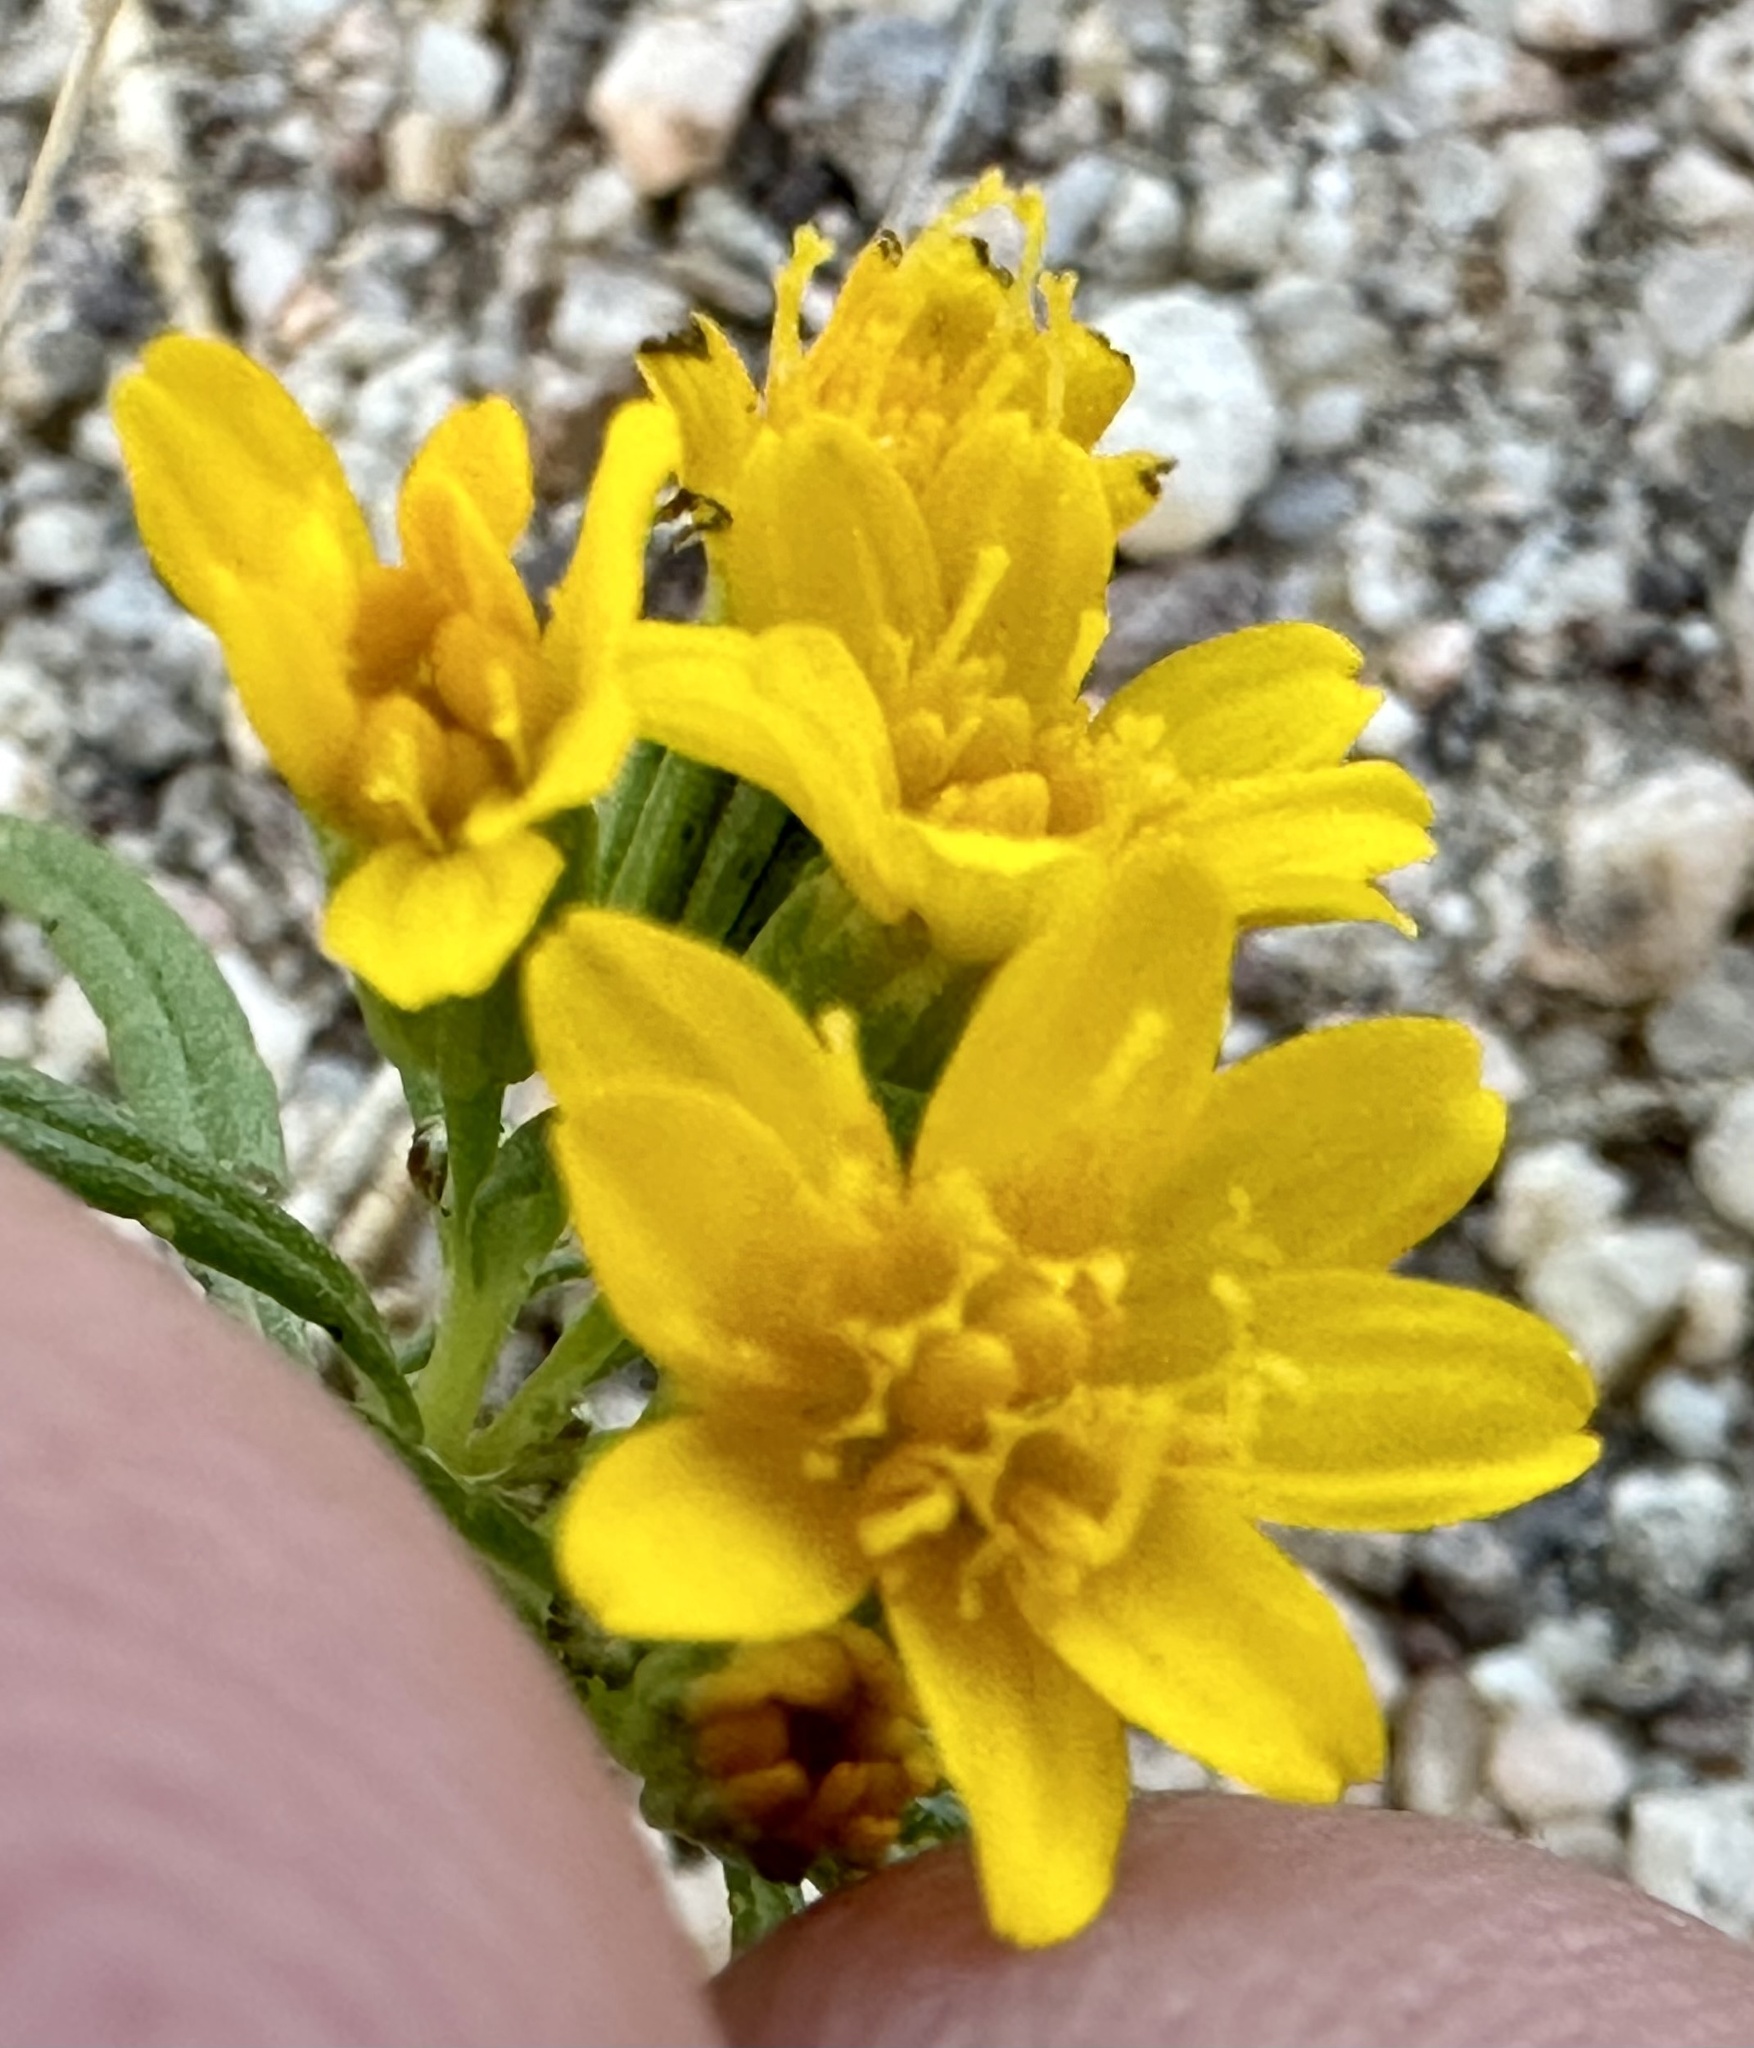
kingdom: Plantae
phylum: Tracheophyta
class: Magnoliopsida
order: Asterales
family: Asteraceae
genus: Pectis
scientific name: Pectis papposa
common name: Many-bristle chinchweed
